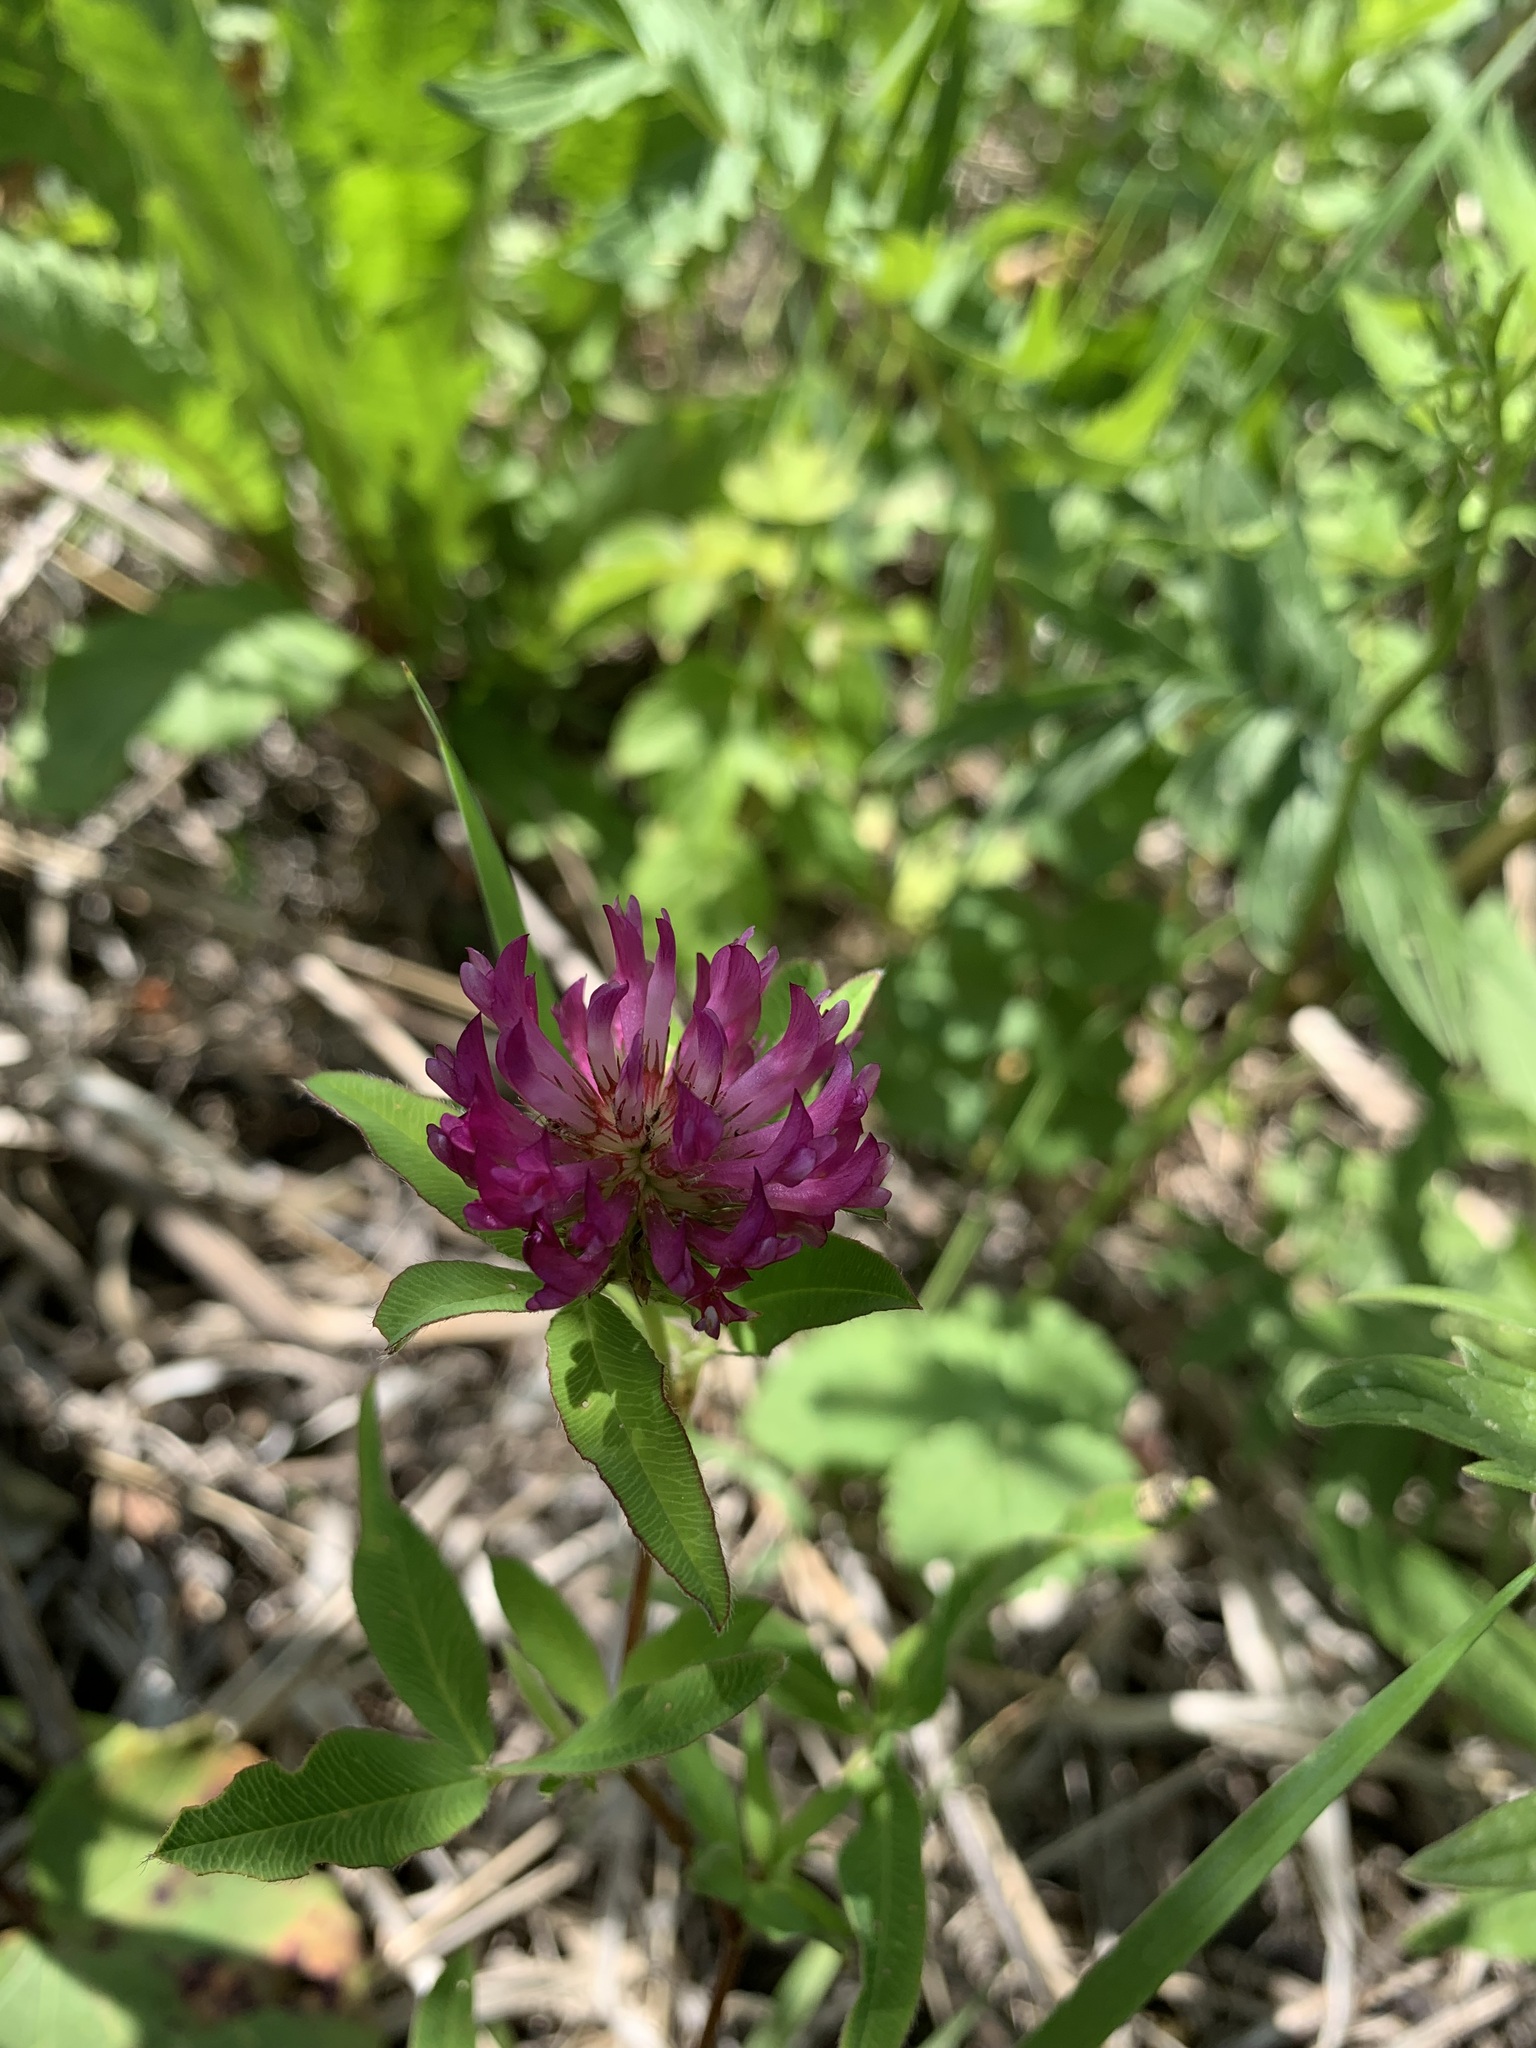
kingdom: Plantae
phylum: Tracheophyta
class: Magnoliopsida
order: Fabales
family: Fabaceae
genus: Trifolium
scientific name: Trifolium medium
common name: Zigzag clover
